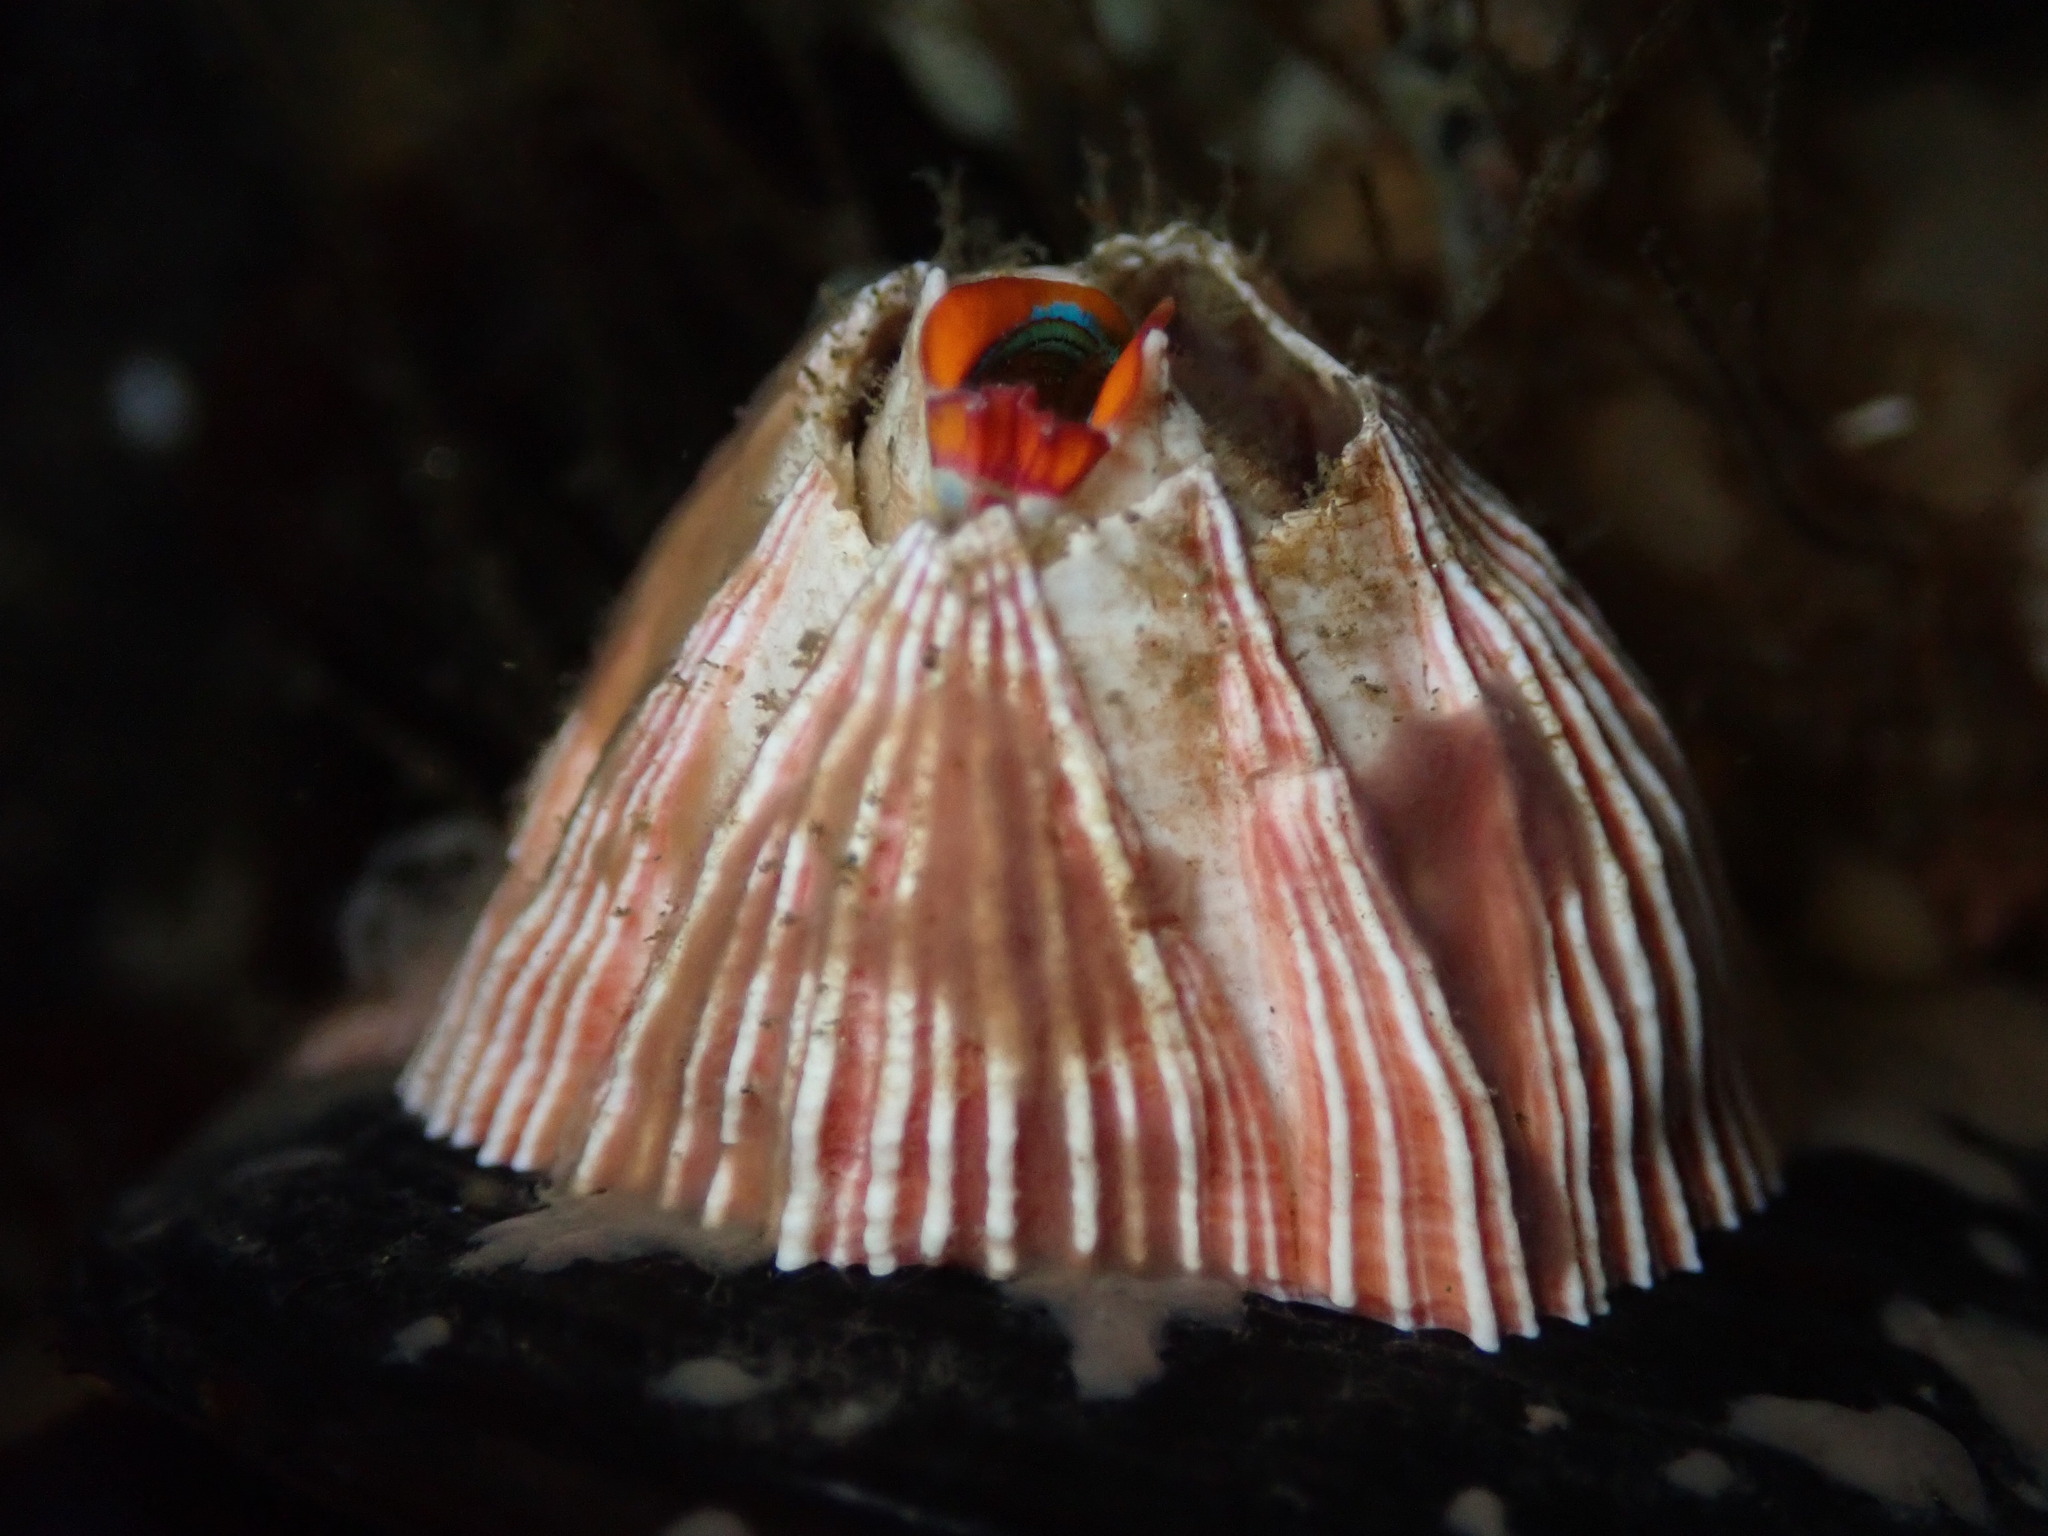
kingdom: Animalia
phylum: Arthropoda
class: Maxillopoda
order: Sessilia
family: Balanidae
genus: Megabalanus
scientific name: Megabalanus californicus
